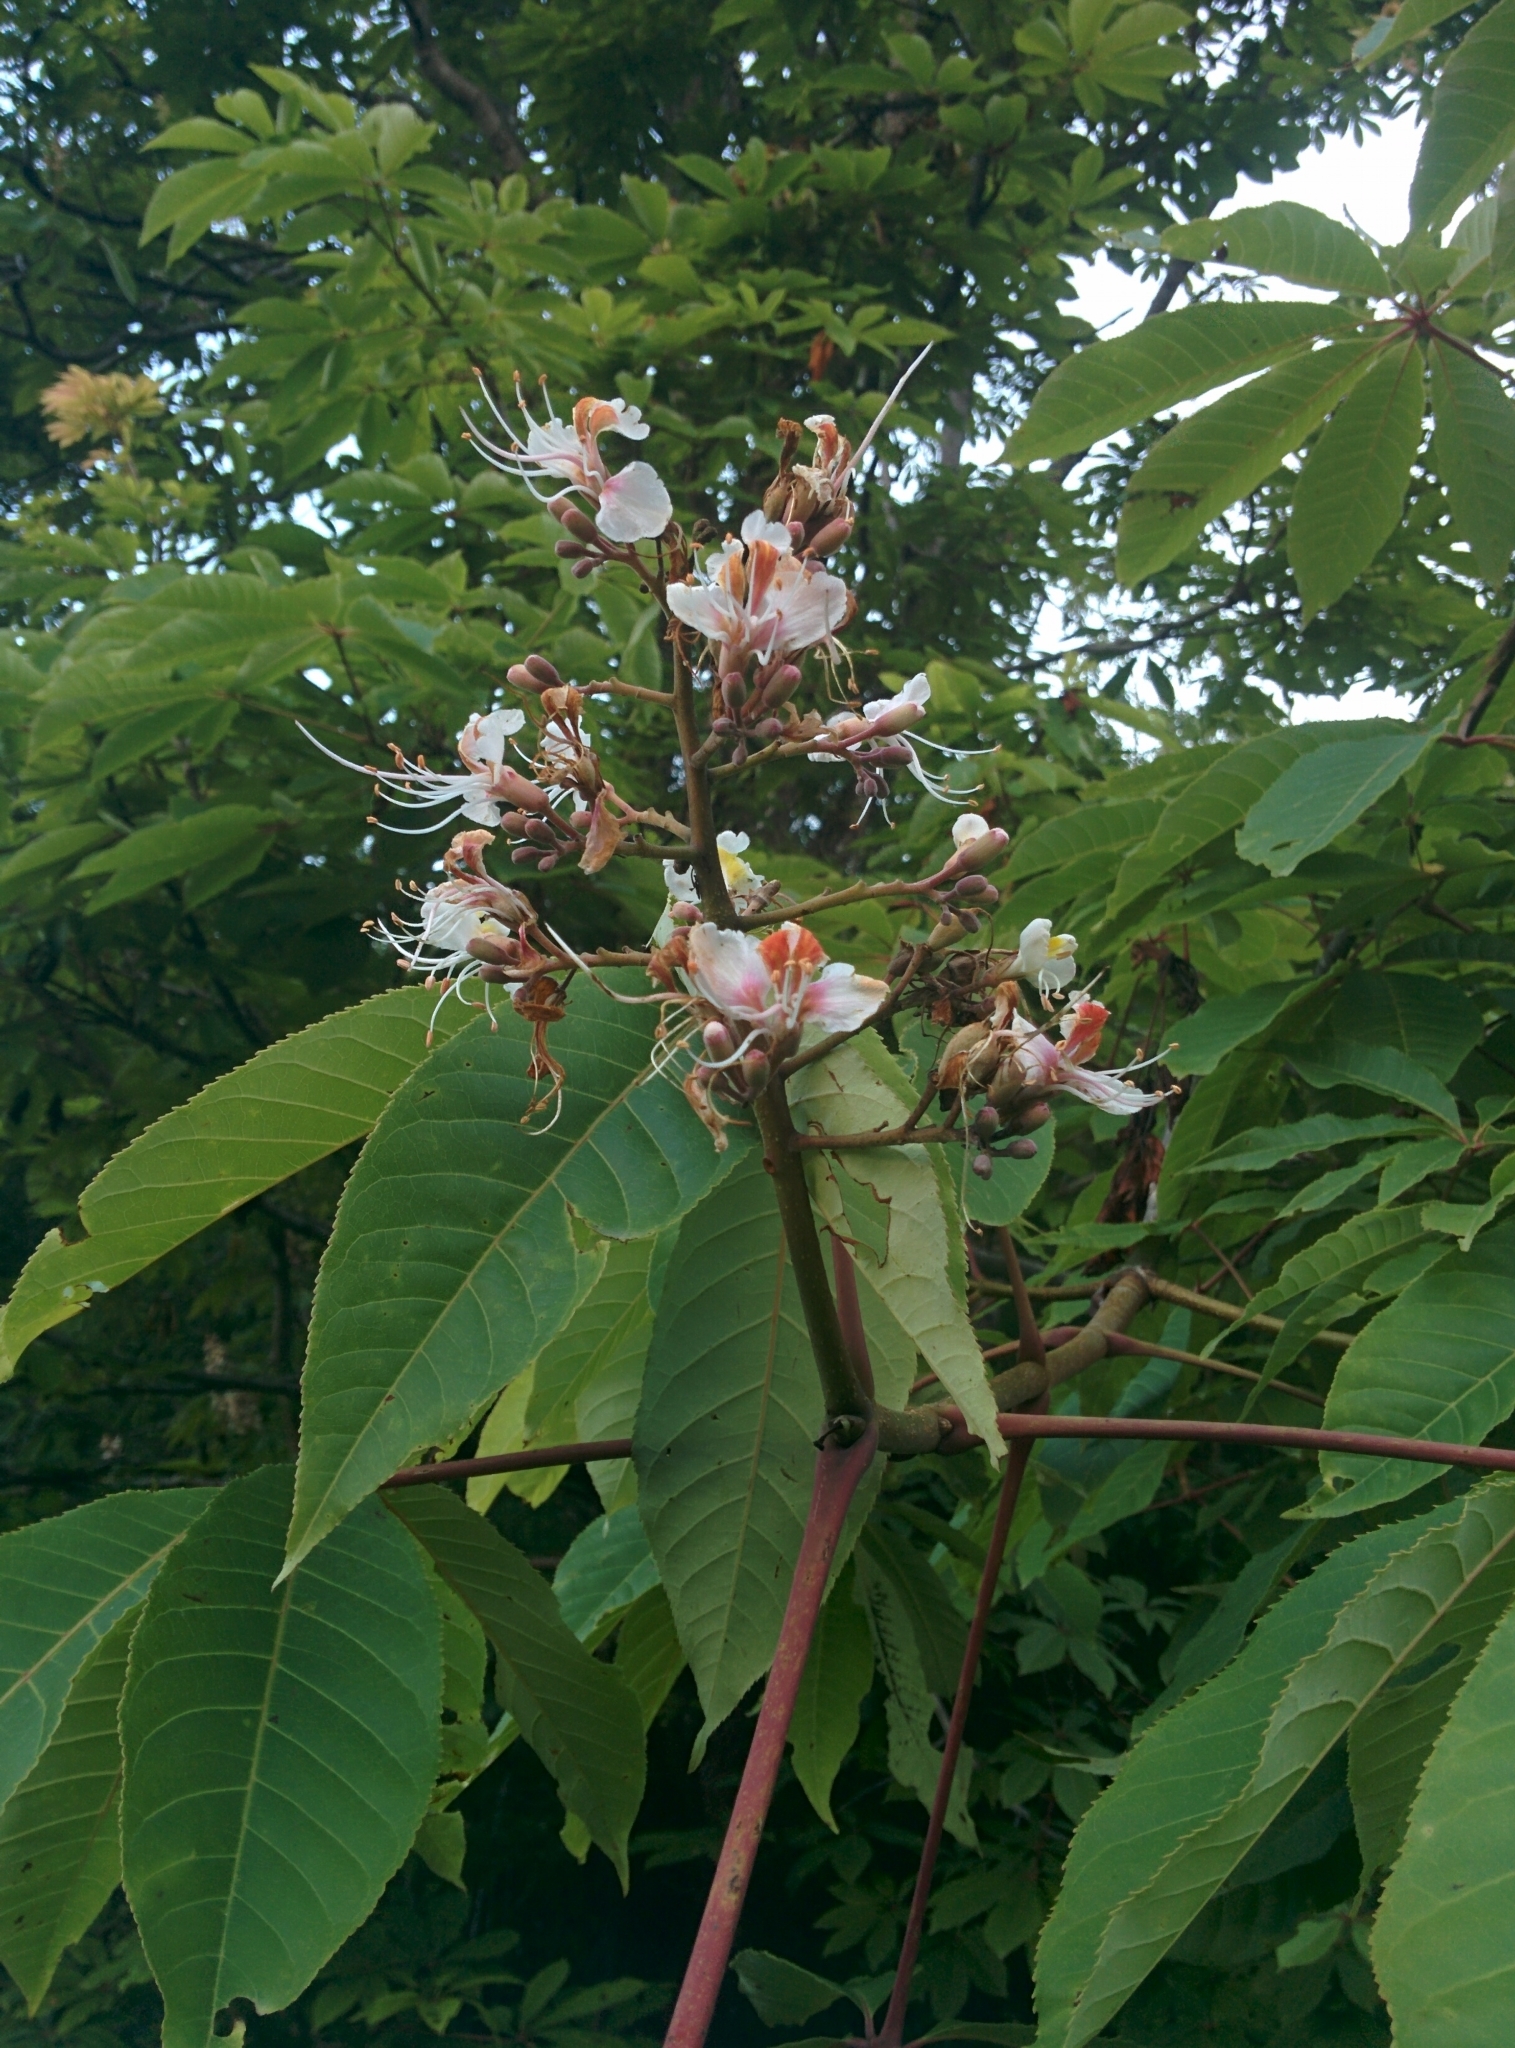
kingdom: Plantae
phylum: Tracheophyta
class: Magnoliopsida
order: Sapindales
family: Sapindaceae
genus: Aesculus
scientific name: Aesculus indica
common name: Indian horse-chestnut
